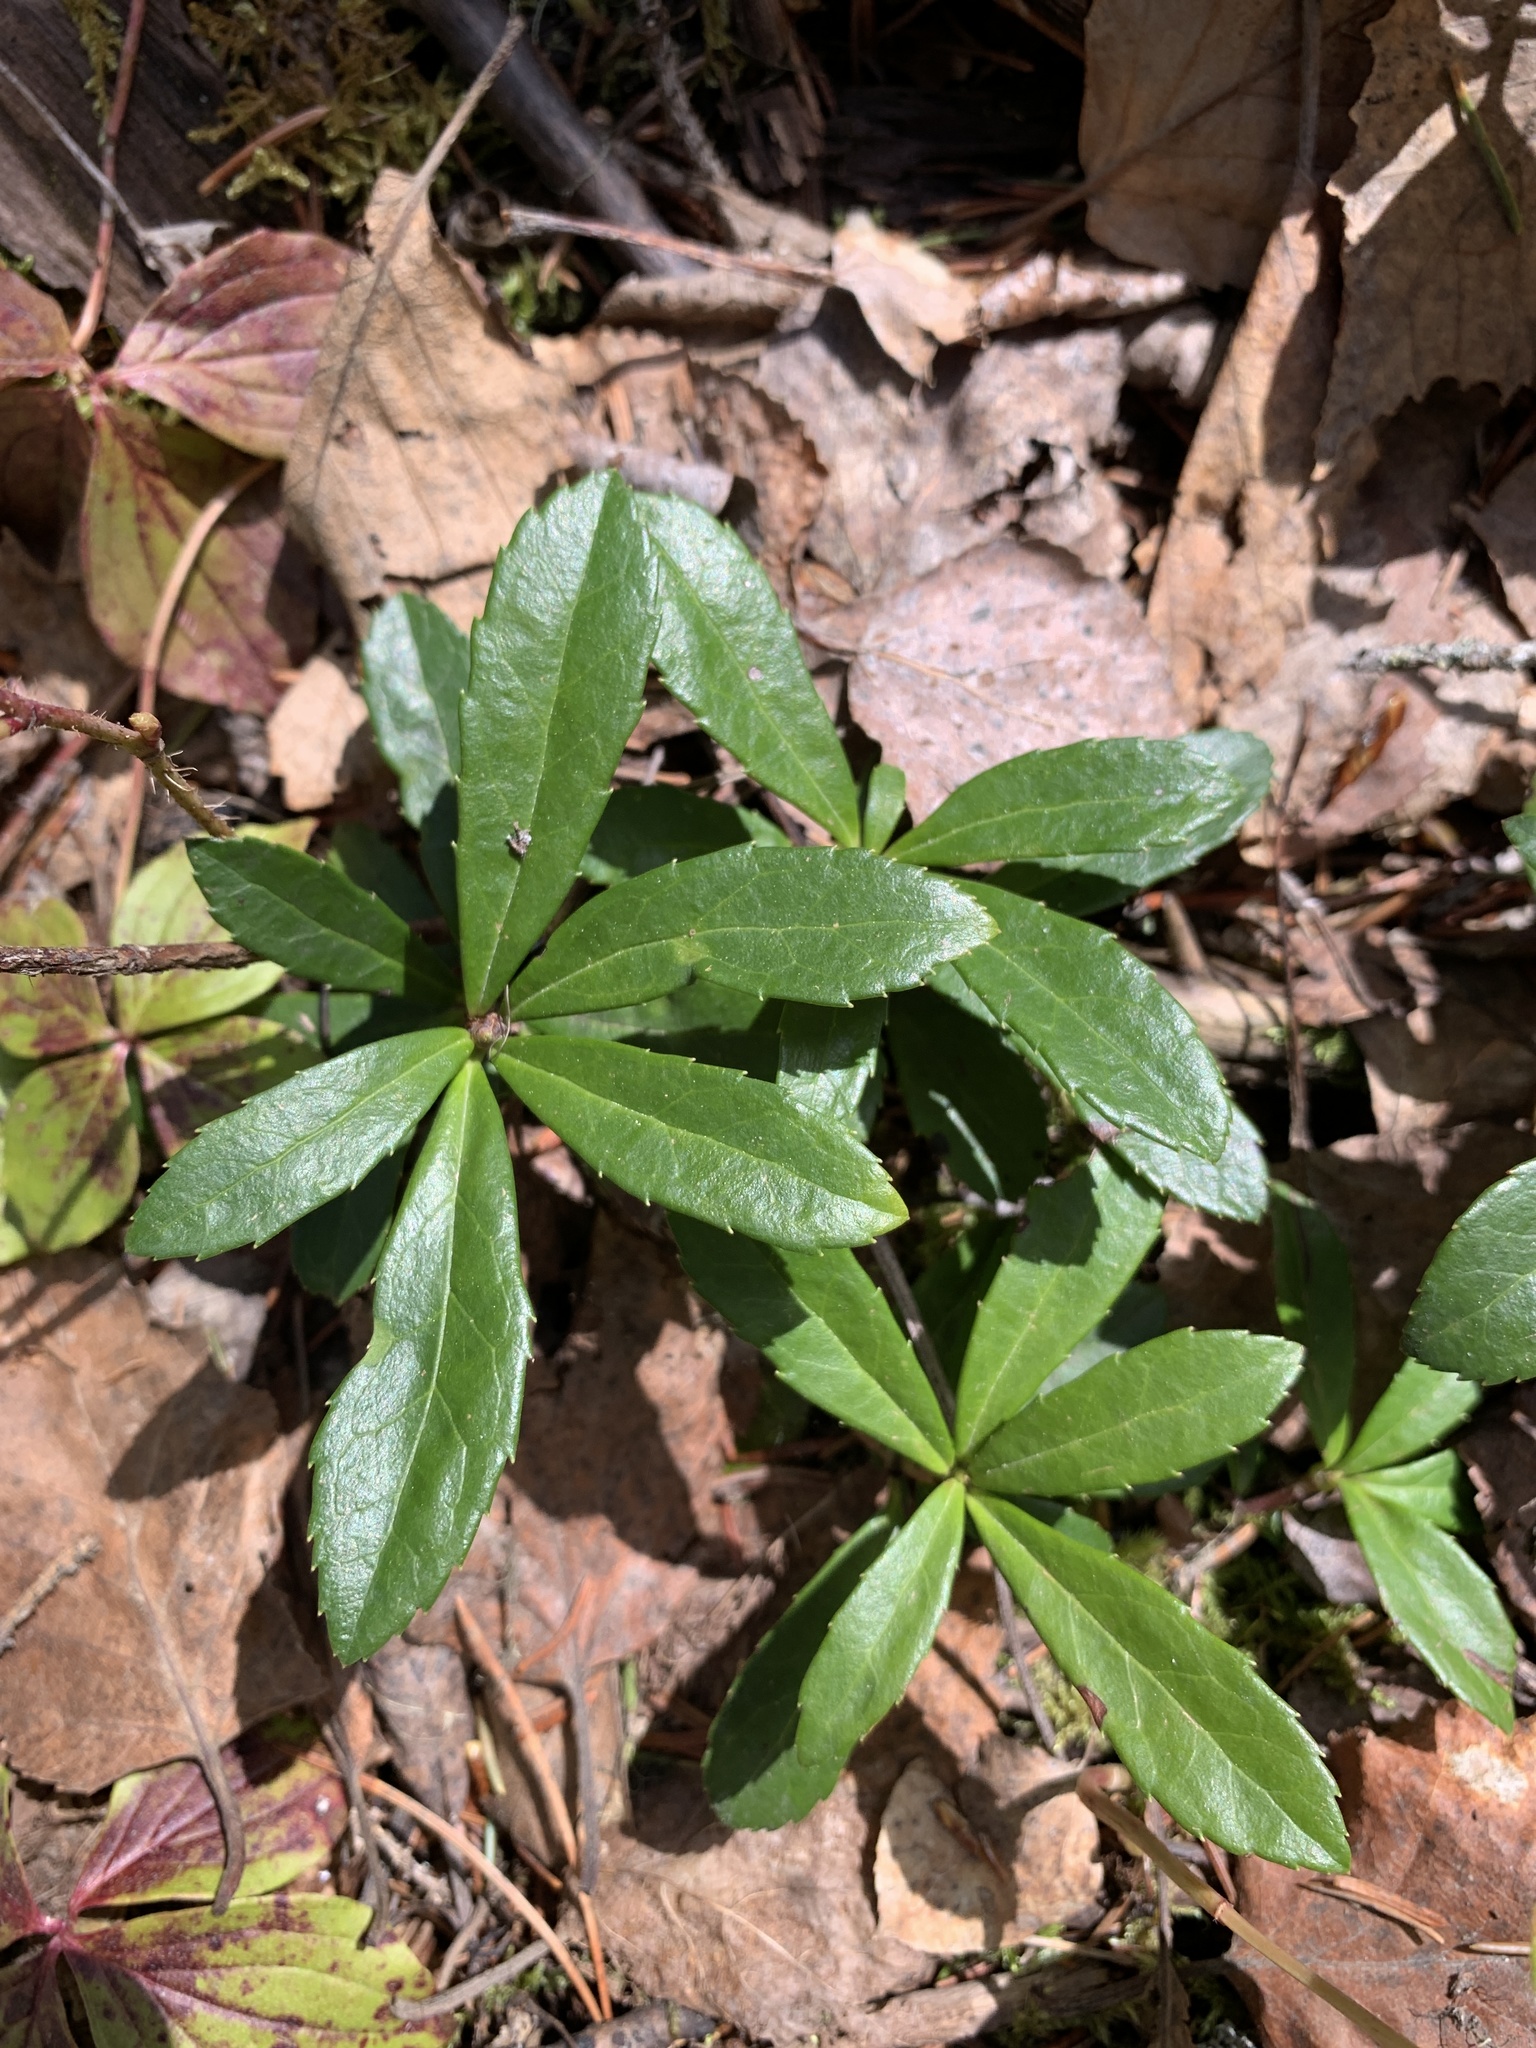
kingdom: Plantae
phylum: Tracheophyta
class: Magnoliopsida
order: Ericales
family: Ericaceae
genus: Chimaphila
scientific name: Chimaphila umbellata
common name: Pipsissewa
